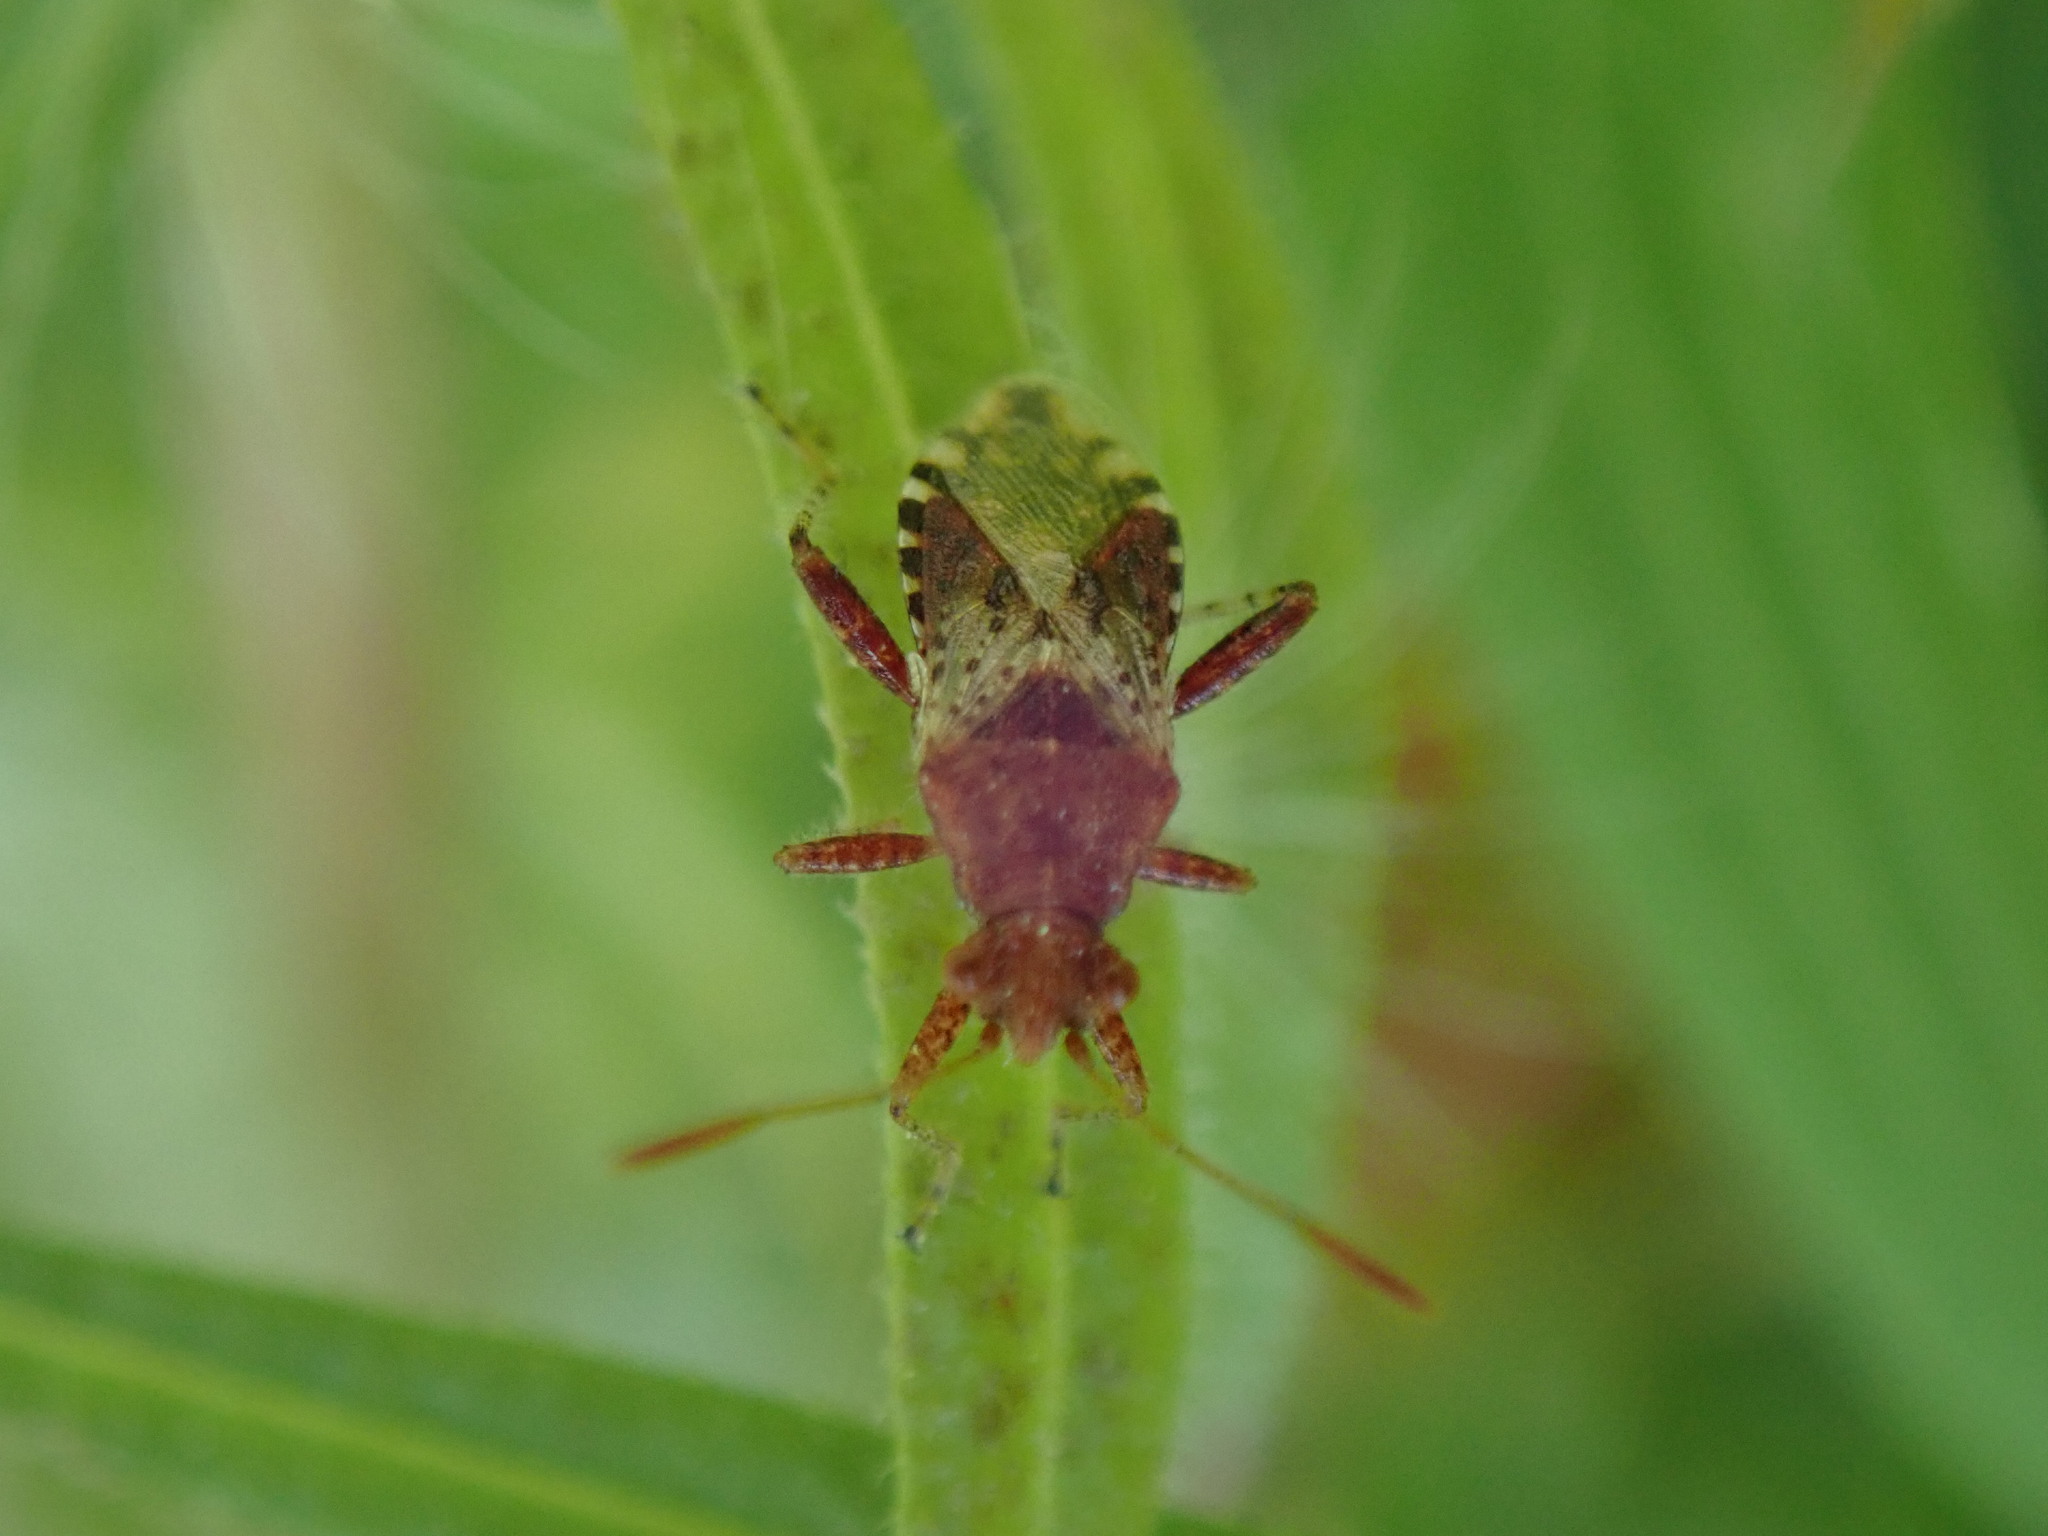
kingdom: Animalia
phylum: Arthropoda
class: Insecta
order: Hemiptera
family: Rhopalidae
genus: Rhopalus
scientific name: Rhopalus subrufus
